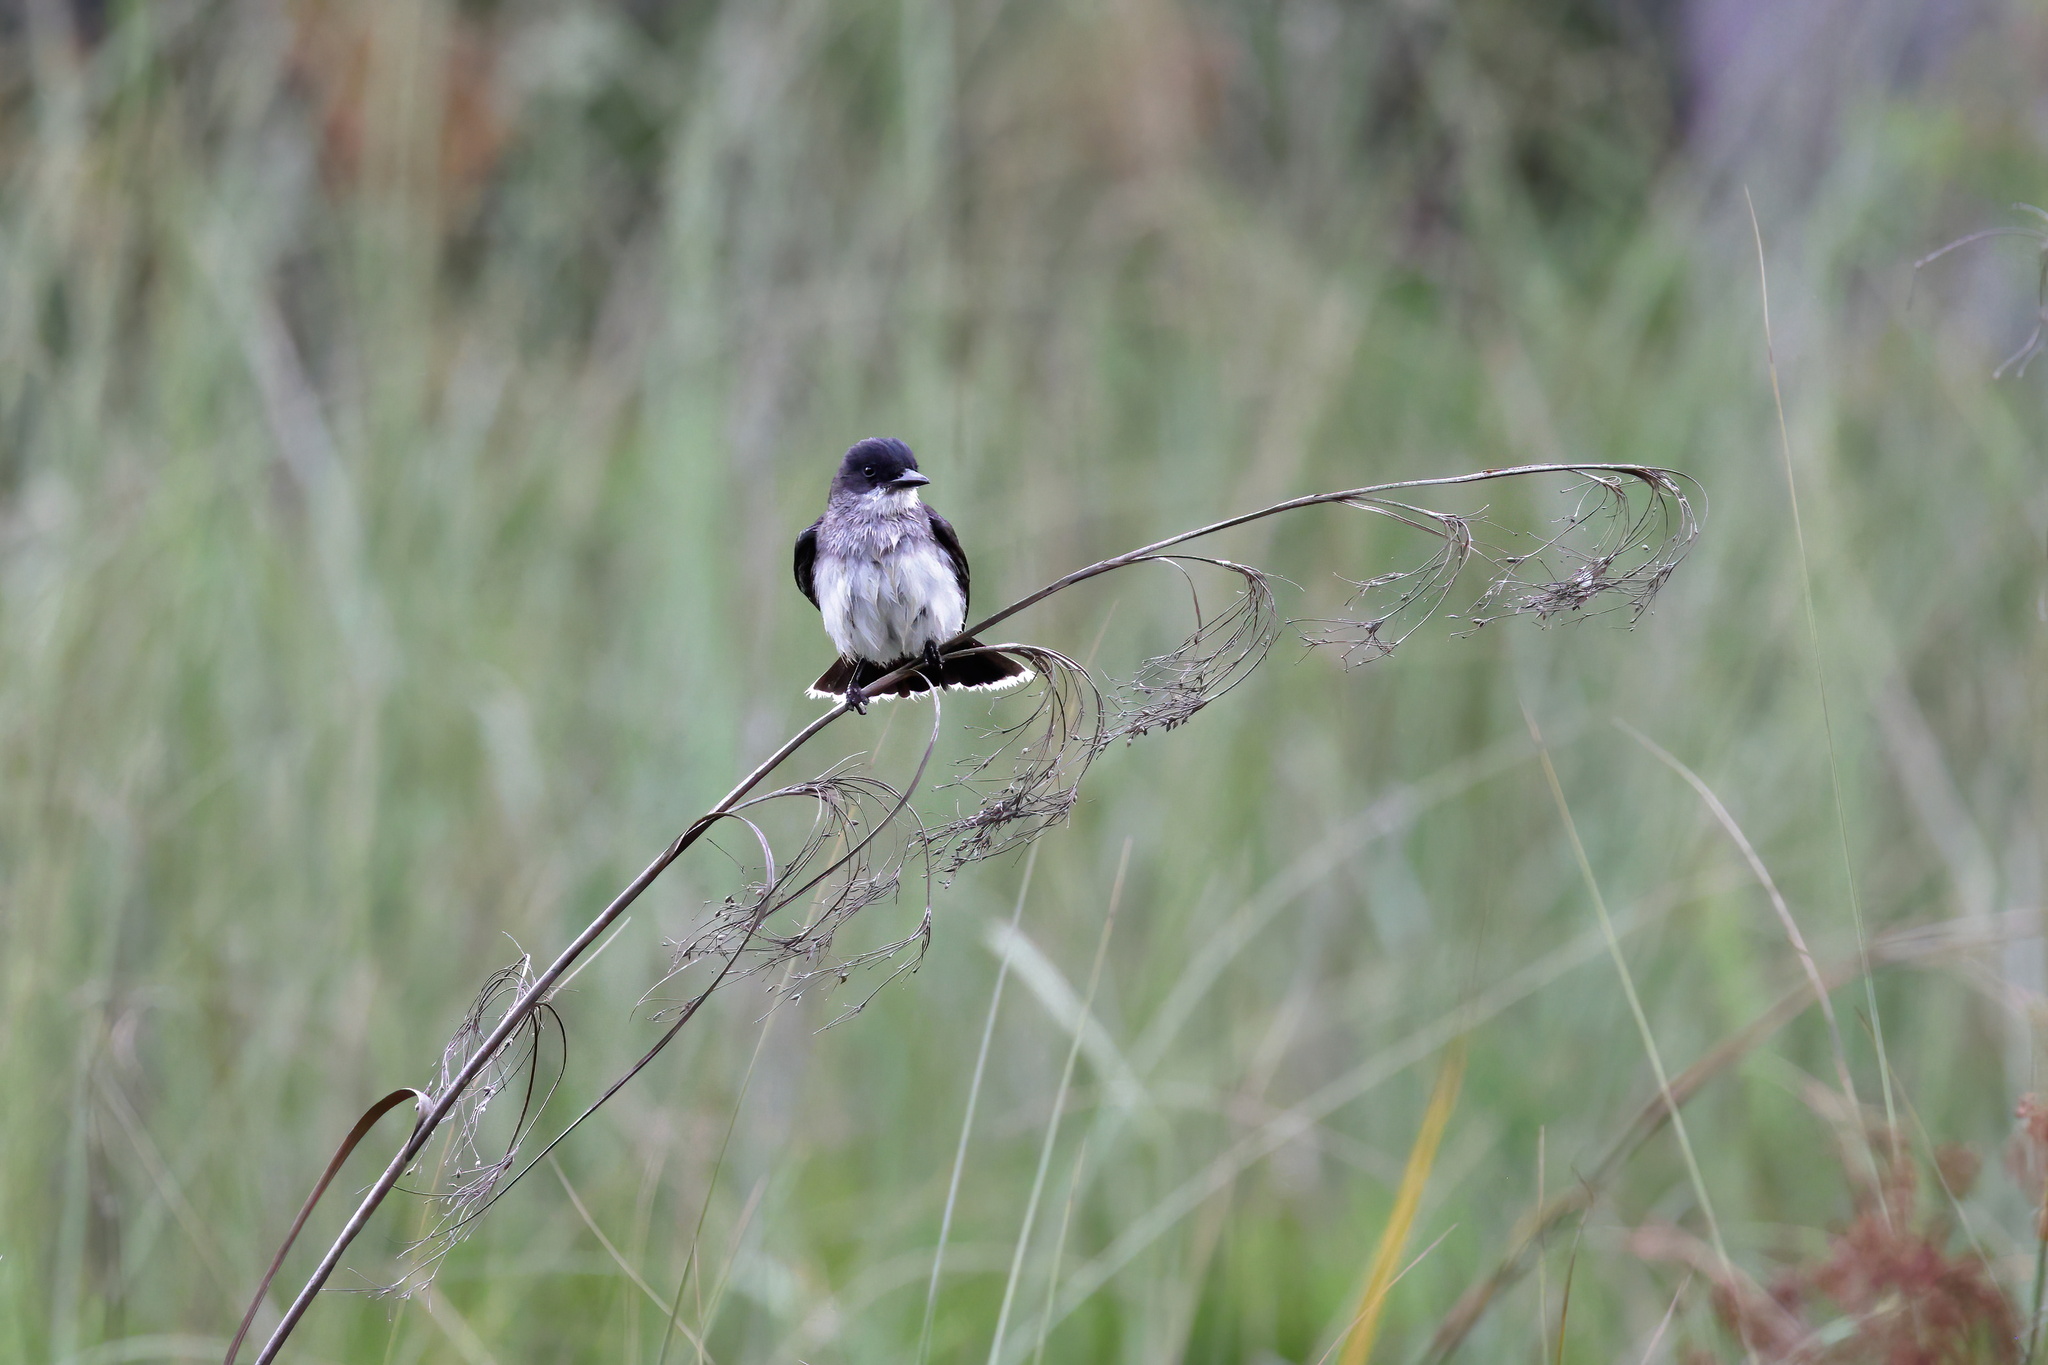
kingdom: Animalia
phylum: Chordata
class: Aves
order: Passeriformes
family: Tyrannidae
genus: Tyrannus
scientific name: Tyrannus tyrannus
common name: Eastern kingbird
